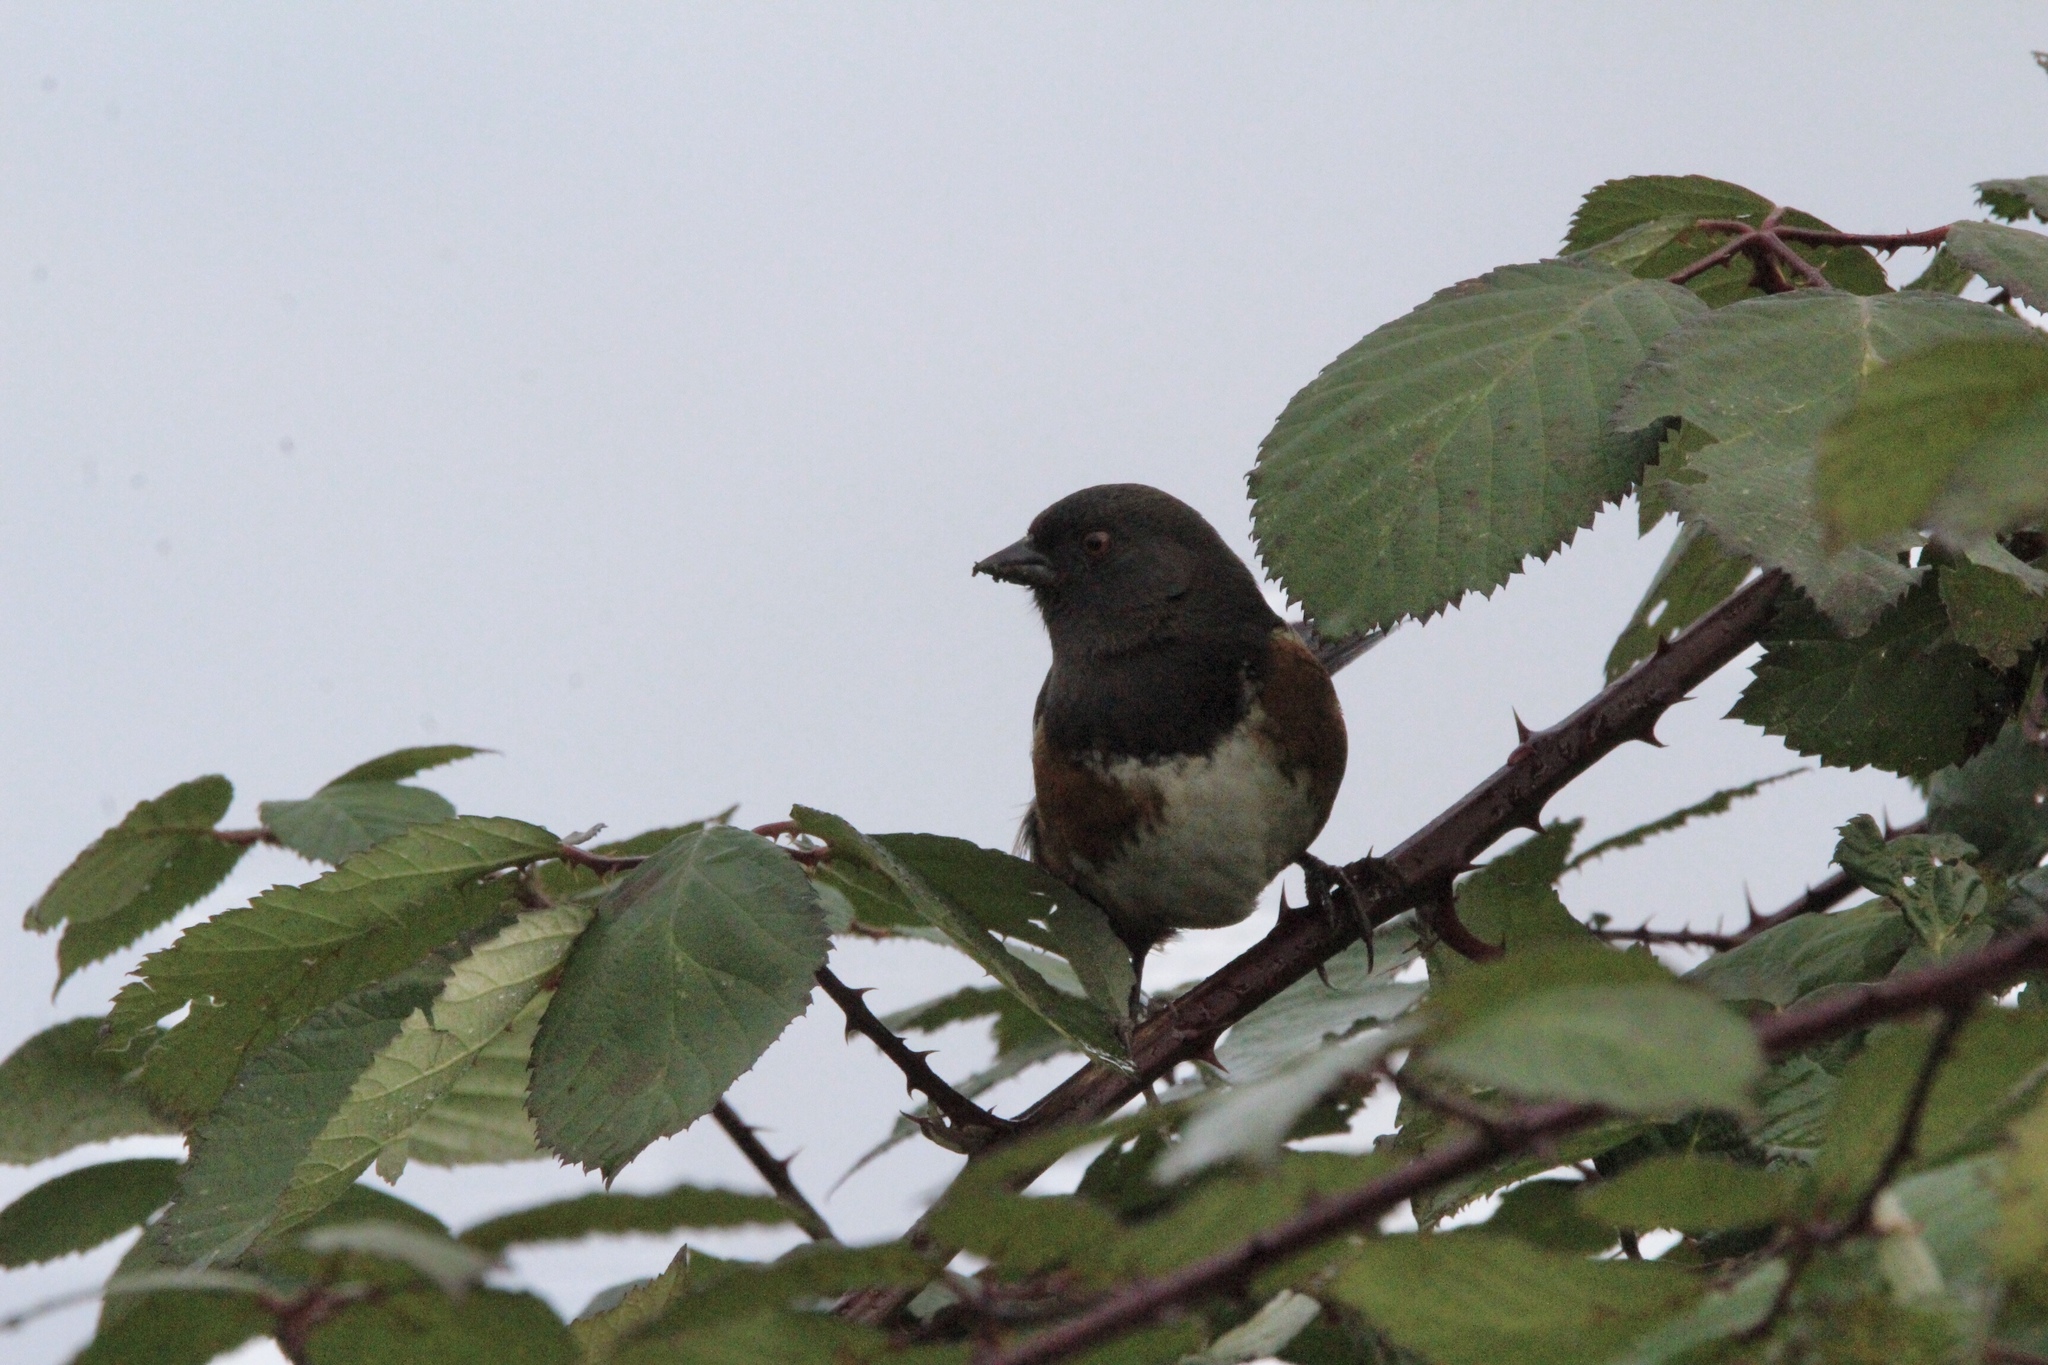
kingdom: Animalia
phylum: Chordata
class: Aves
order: Passeriformes
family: Passerellidae
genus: Pipilo
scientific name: Pipilo maculatus
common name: Spotted towhee
